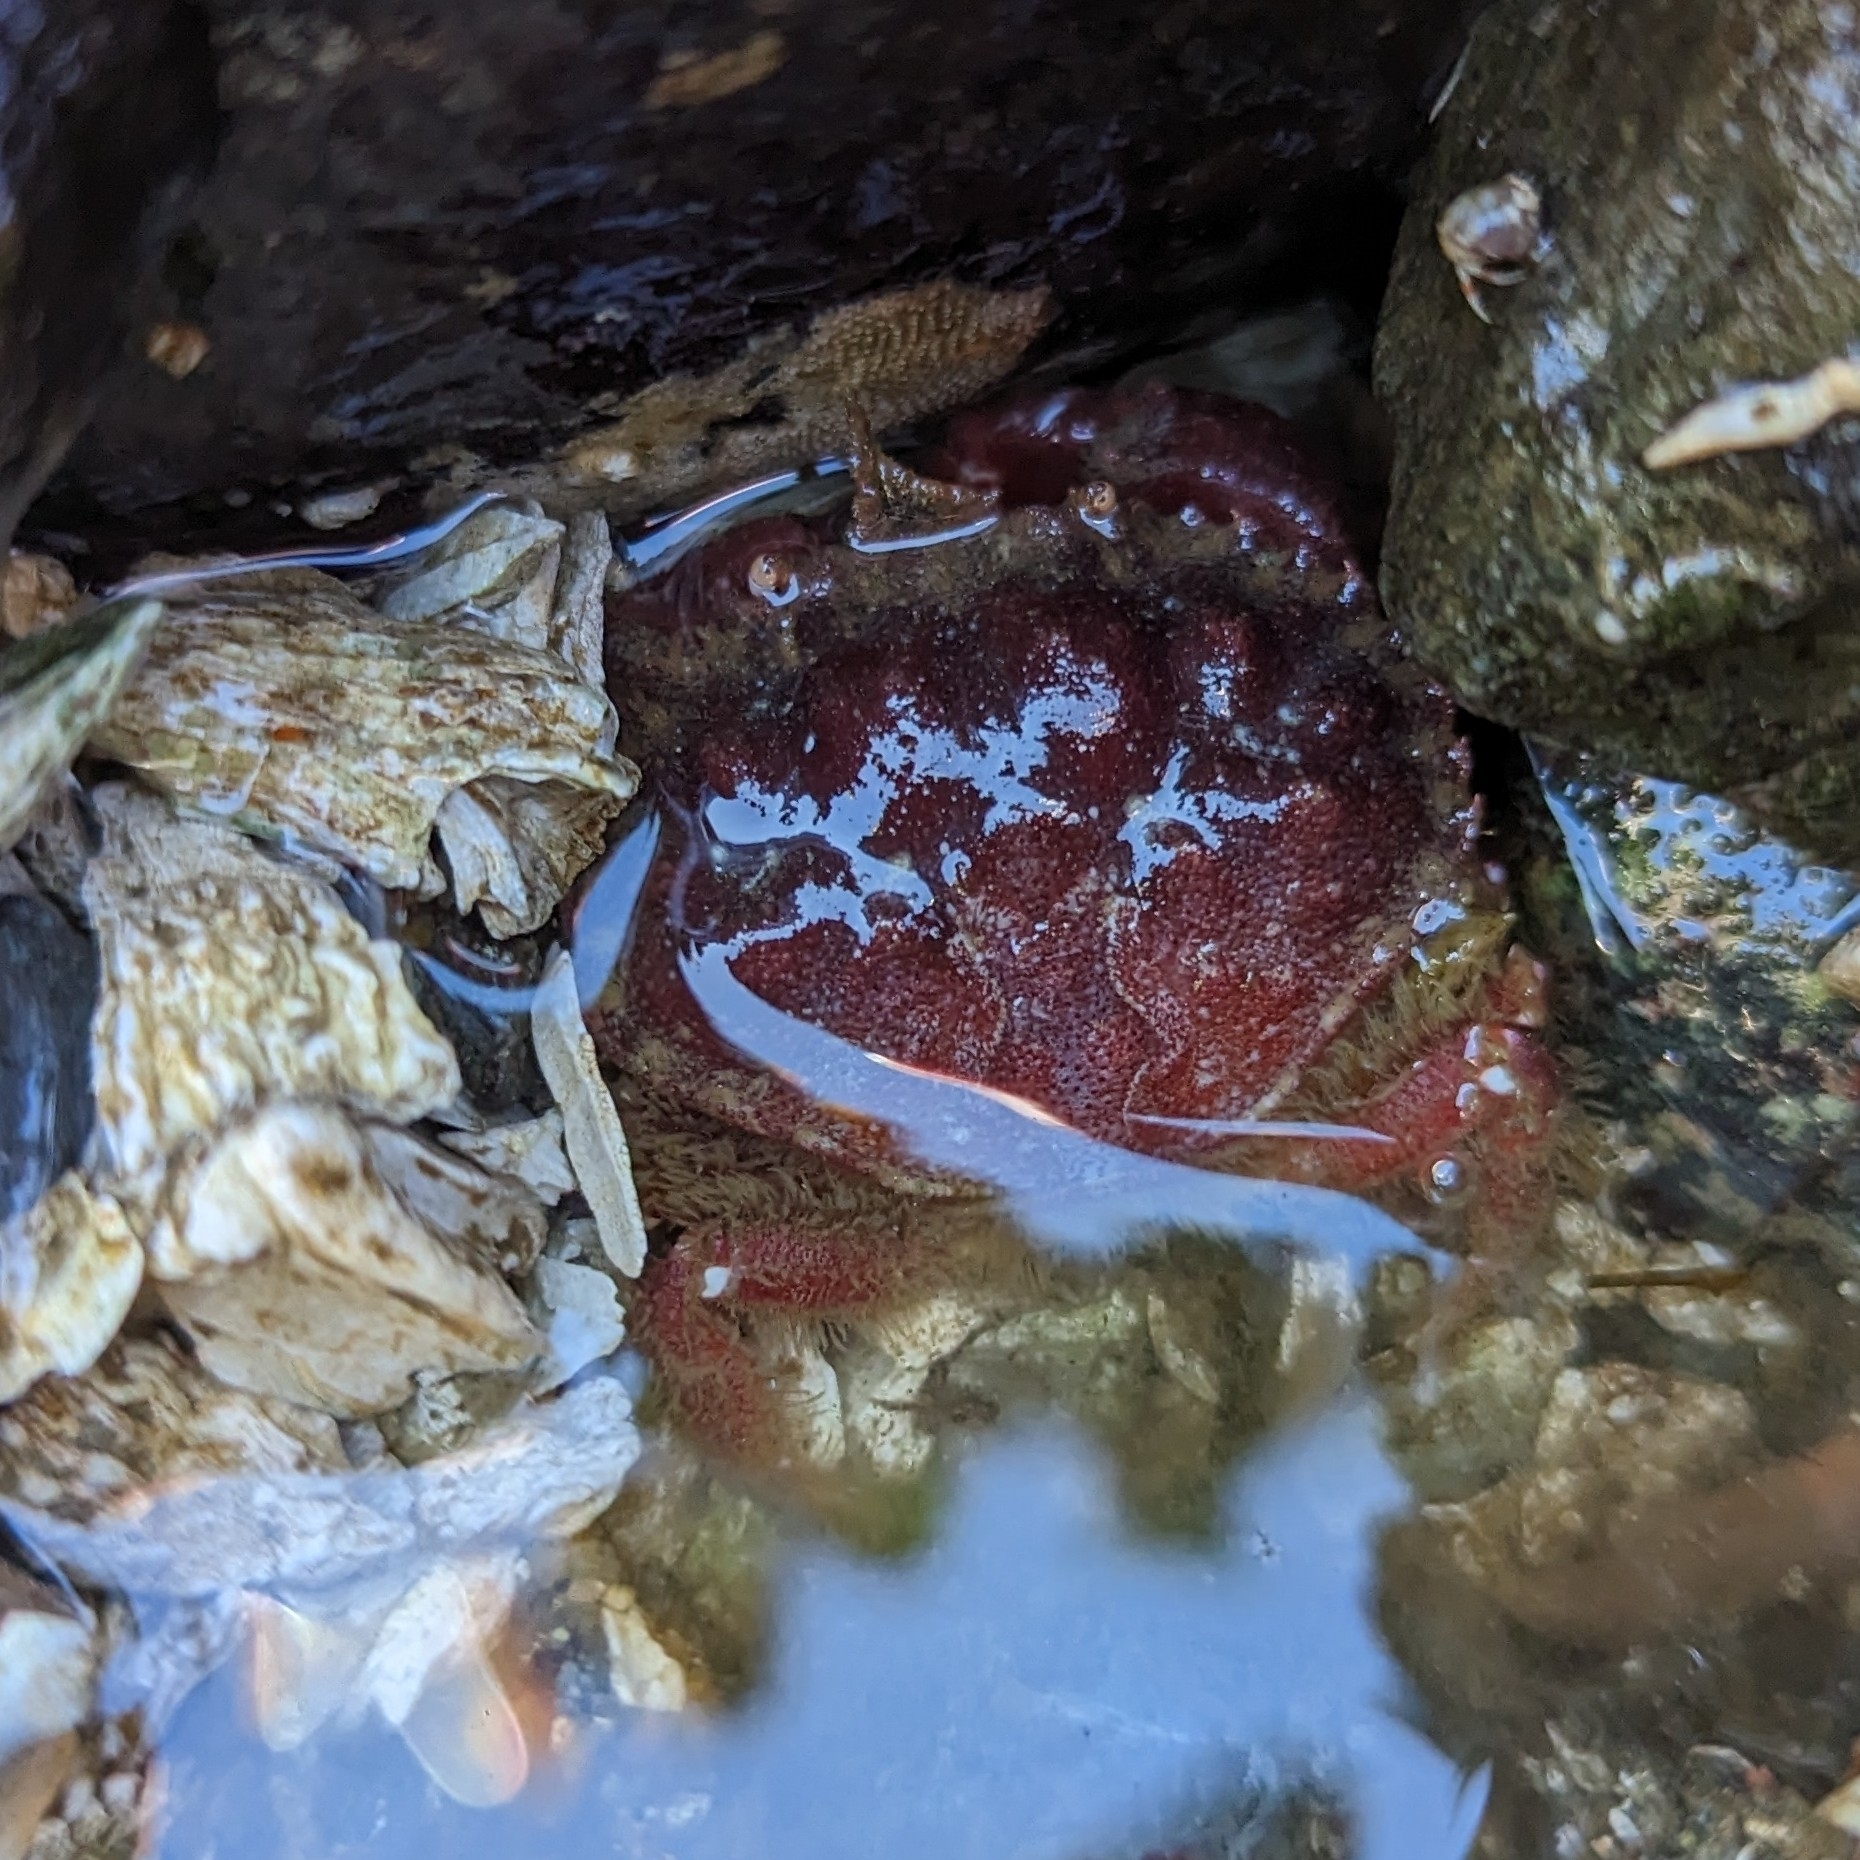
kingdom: Animalia
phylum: Arthropoda
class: Malacostraca
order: Decapoda
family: Cancridae
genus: Glebocarcinus
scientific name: Glebocarcinus oregonensis
